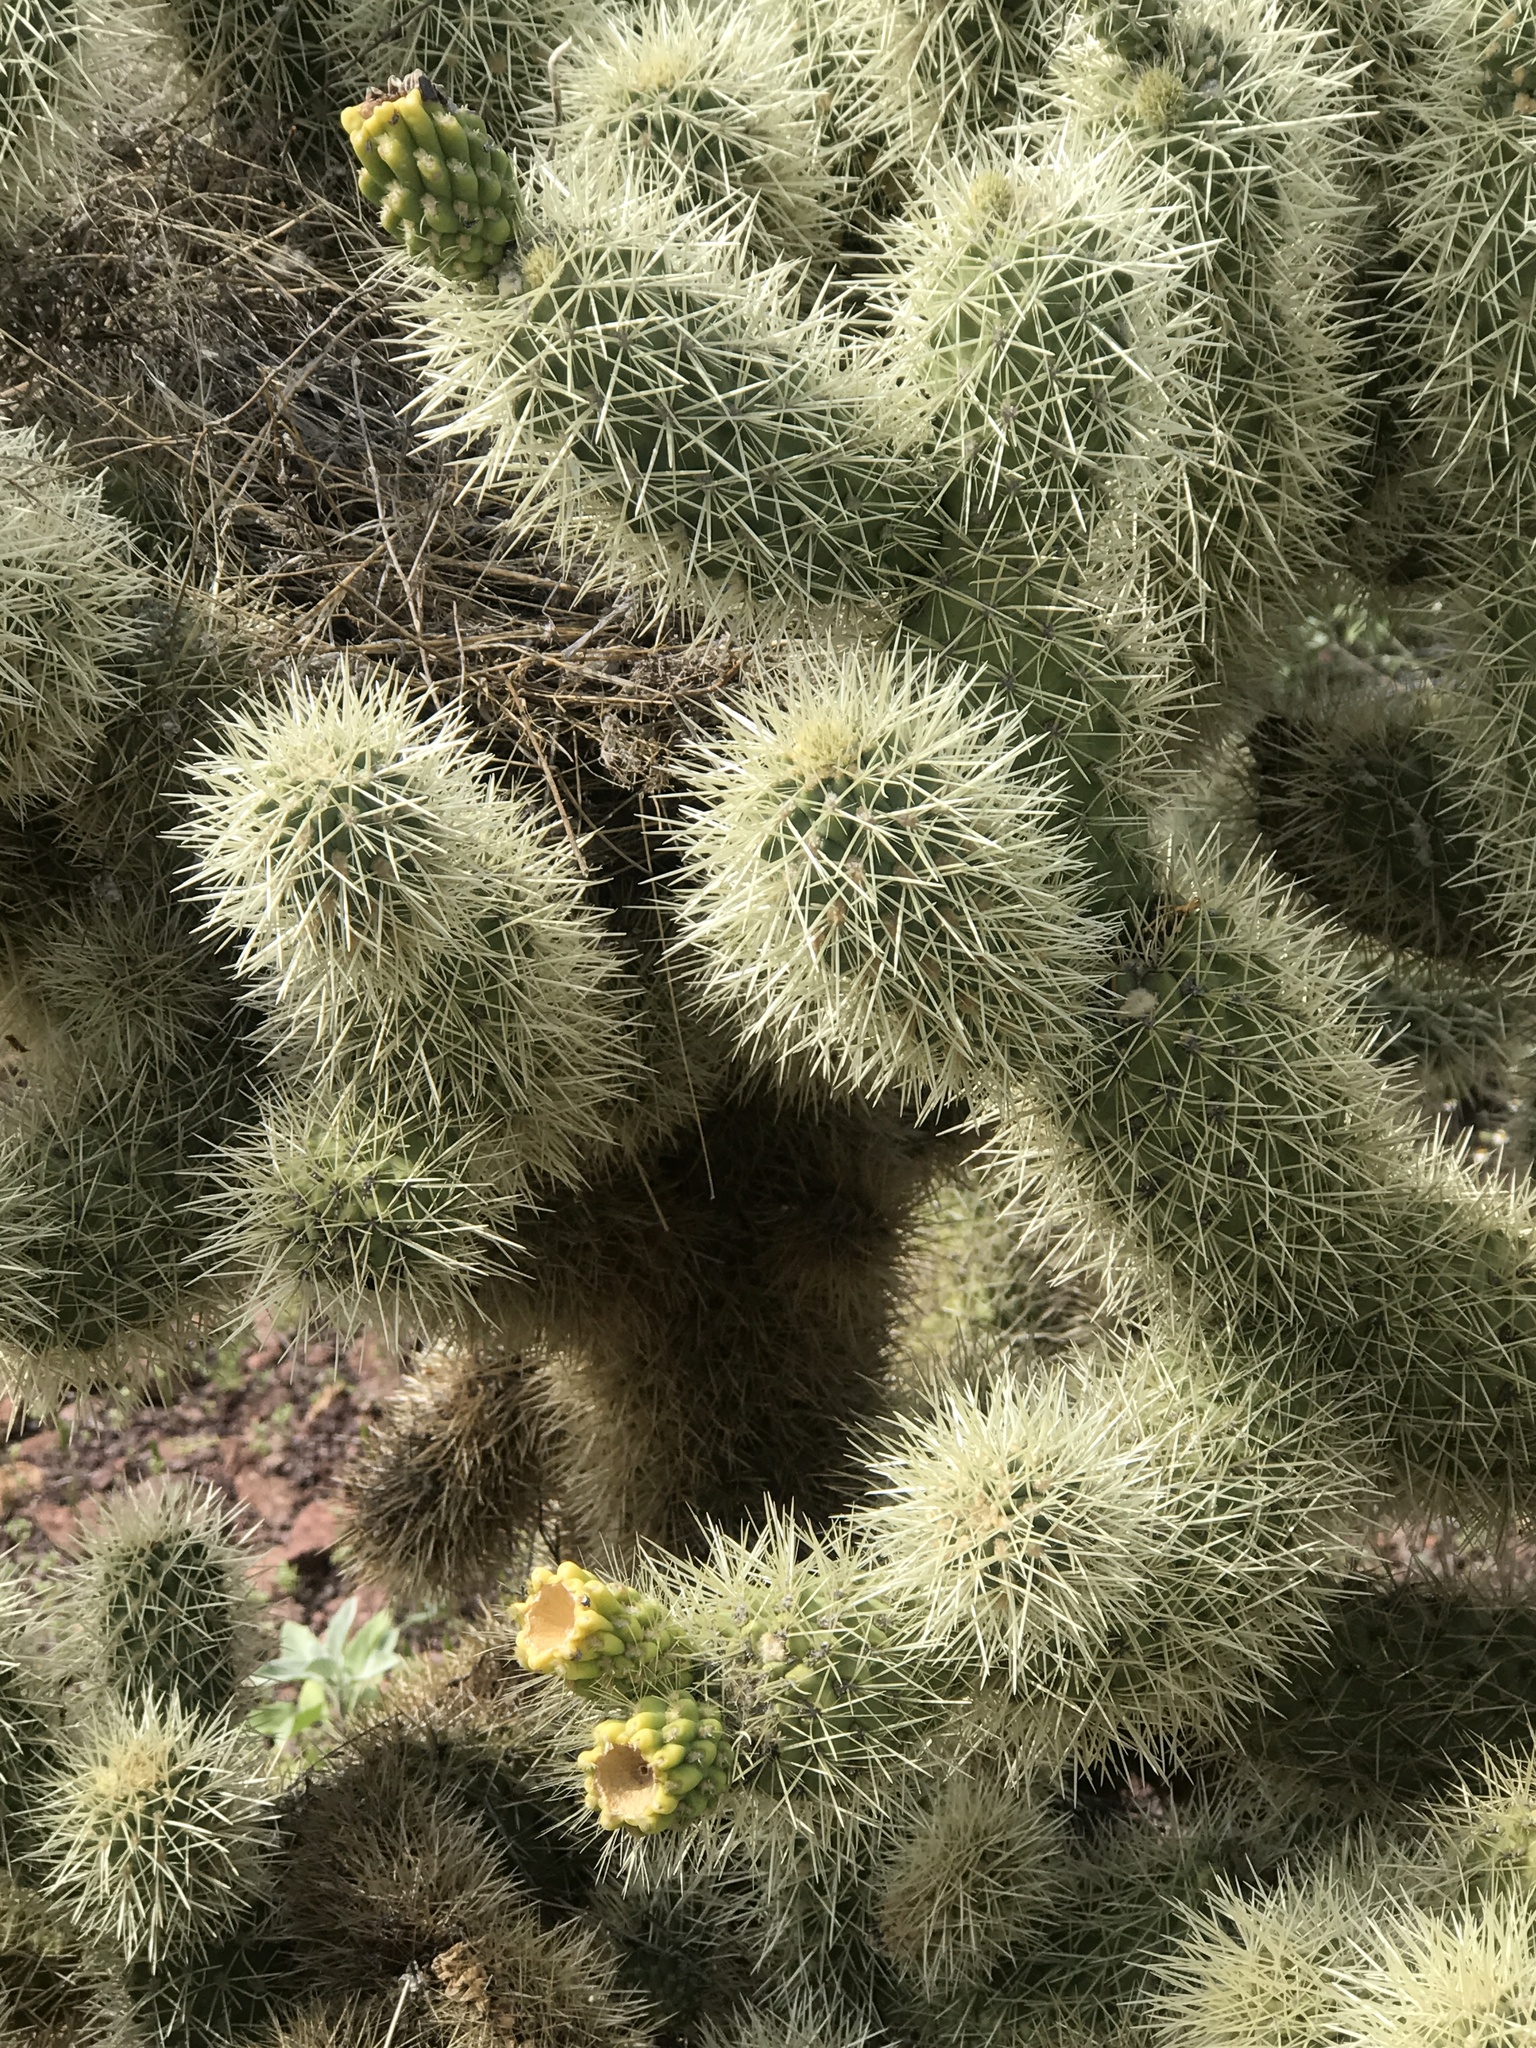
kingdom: Plantae
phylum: Tracheophyta
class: Magnoliopsida
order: Caryophyllales
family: Cactaceae
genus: Cylindropuntia
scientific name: Cylindropuntia fosbergii
